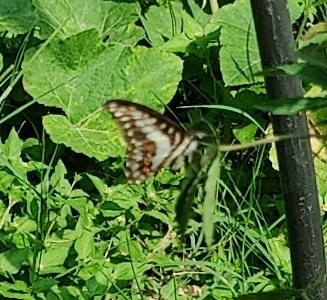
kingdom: Animalia
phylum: Arthropoda
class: Insecta
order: Lepidoptera
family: Papilionidae
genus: Graphium
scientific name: Graphium doson
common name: Common jay
